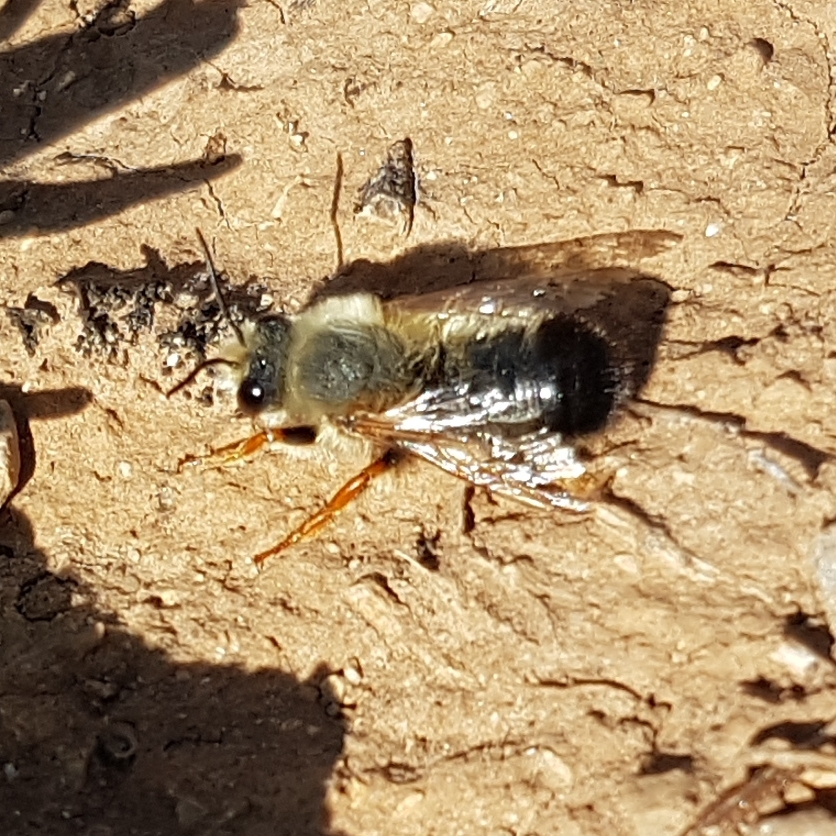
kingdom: Animalia
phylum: Arthropoda
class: Insecta
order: Hymenoptera
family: Megachilidae
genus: Megachile
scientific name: Megachile sicula
